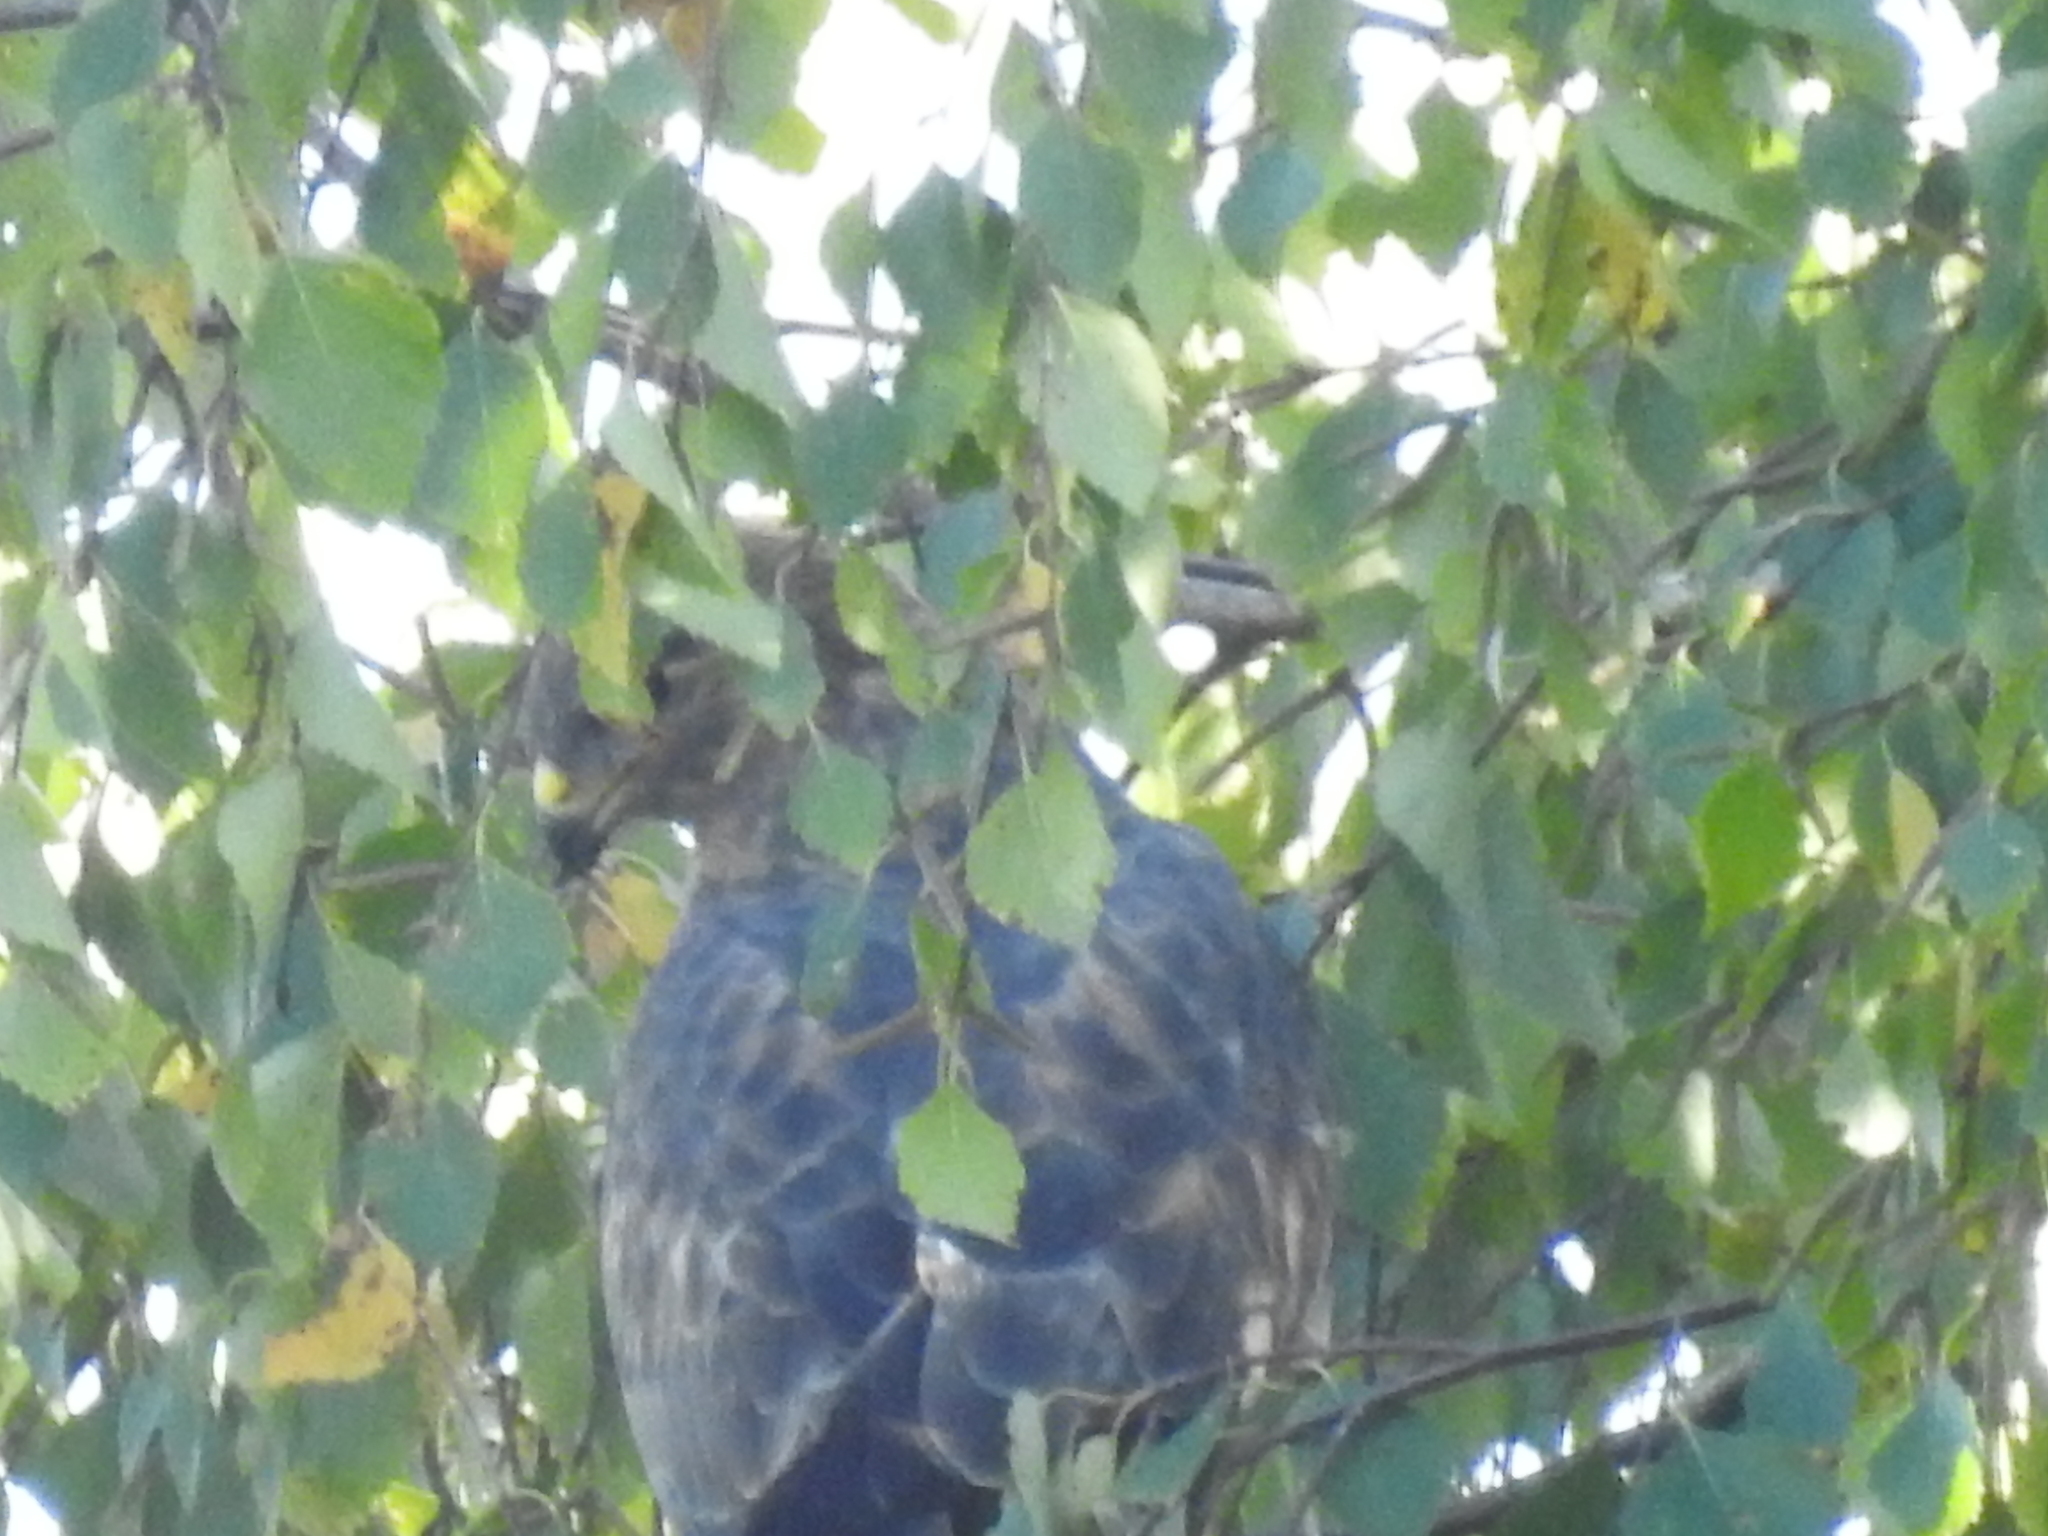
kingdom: Animalia
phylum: Chordata
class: Aves
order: Accipitriformes
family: Accipitridae
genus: Buteo
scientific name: Buteo buteo
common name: Common buzzard
